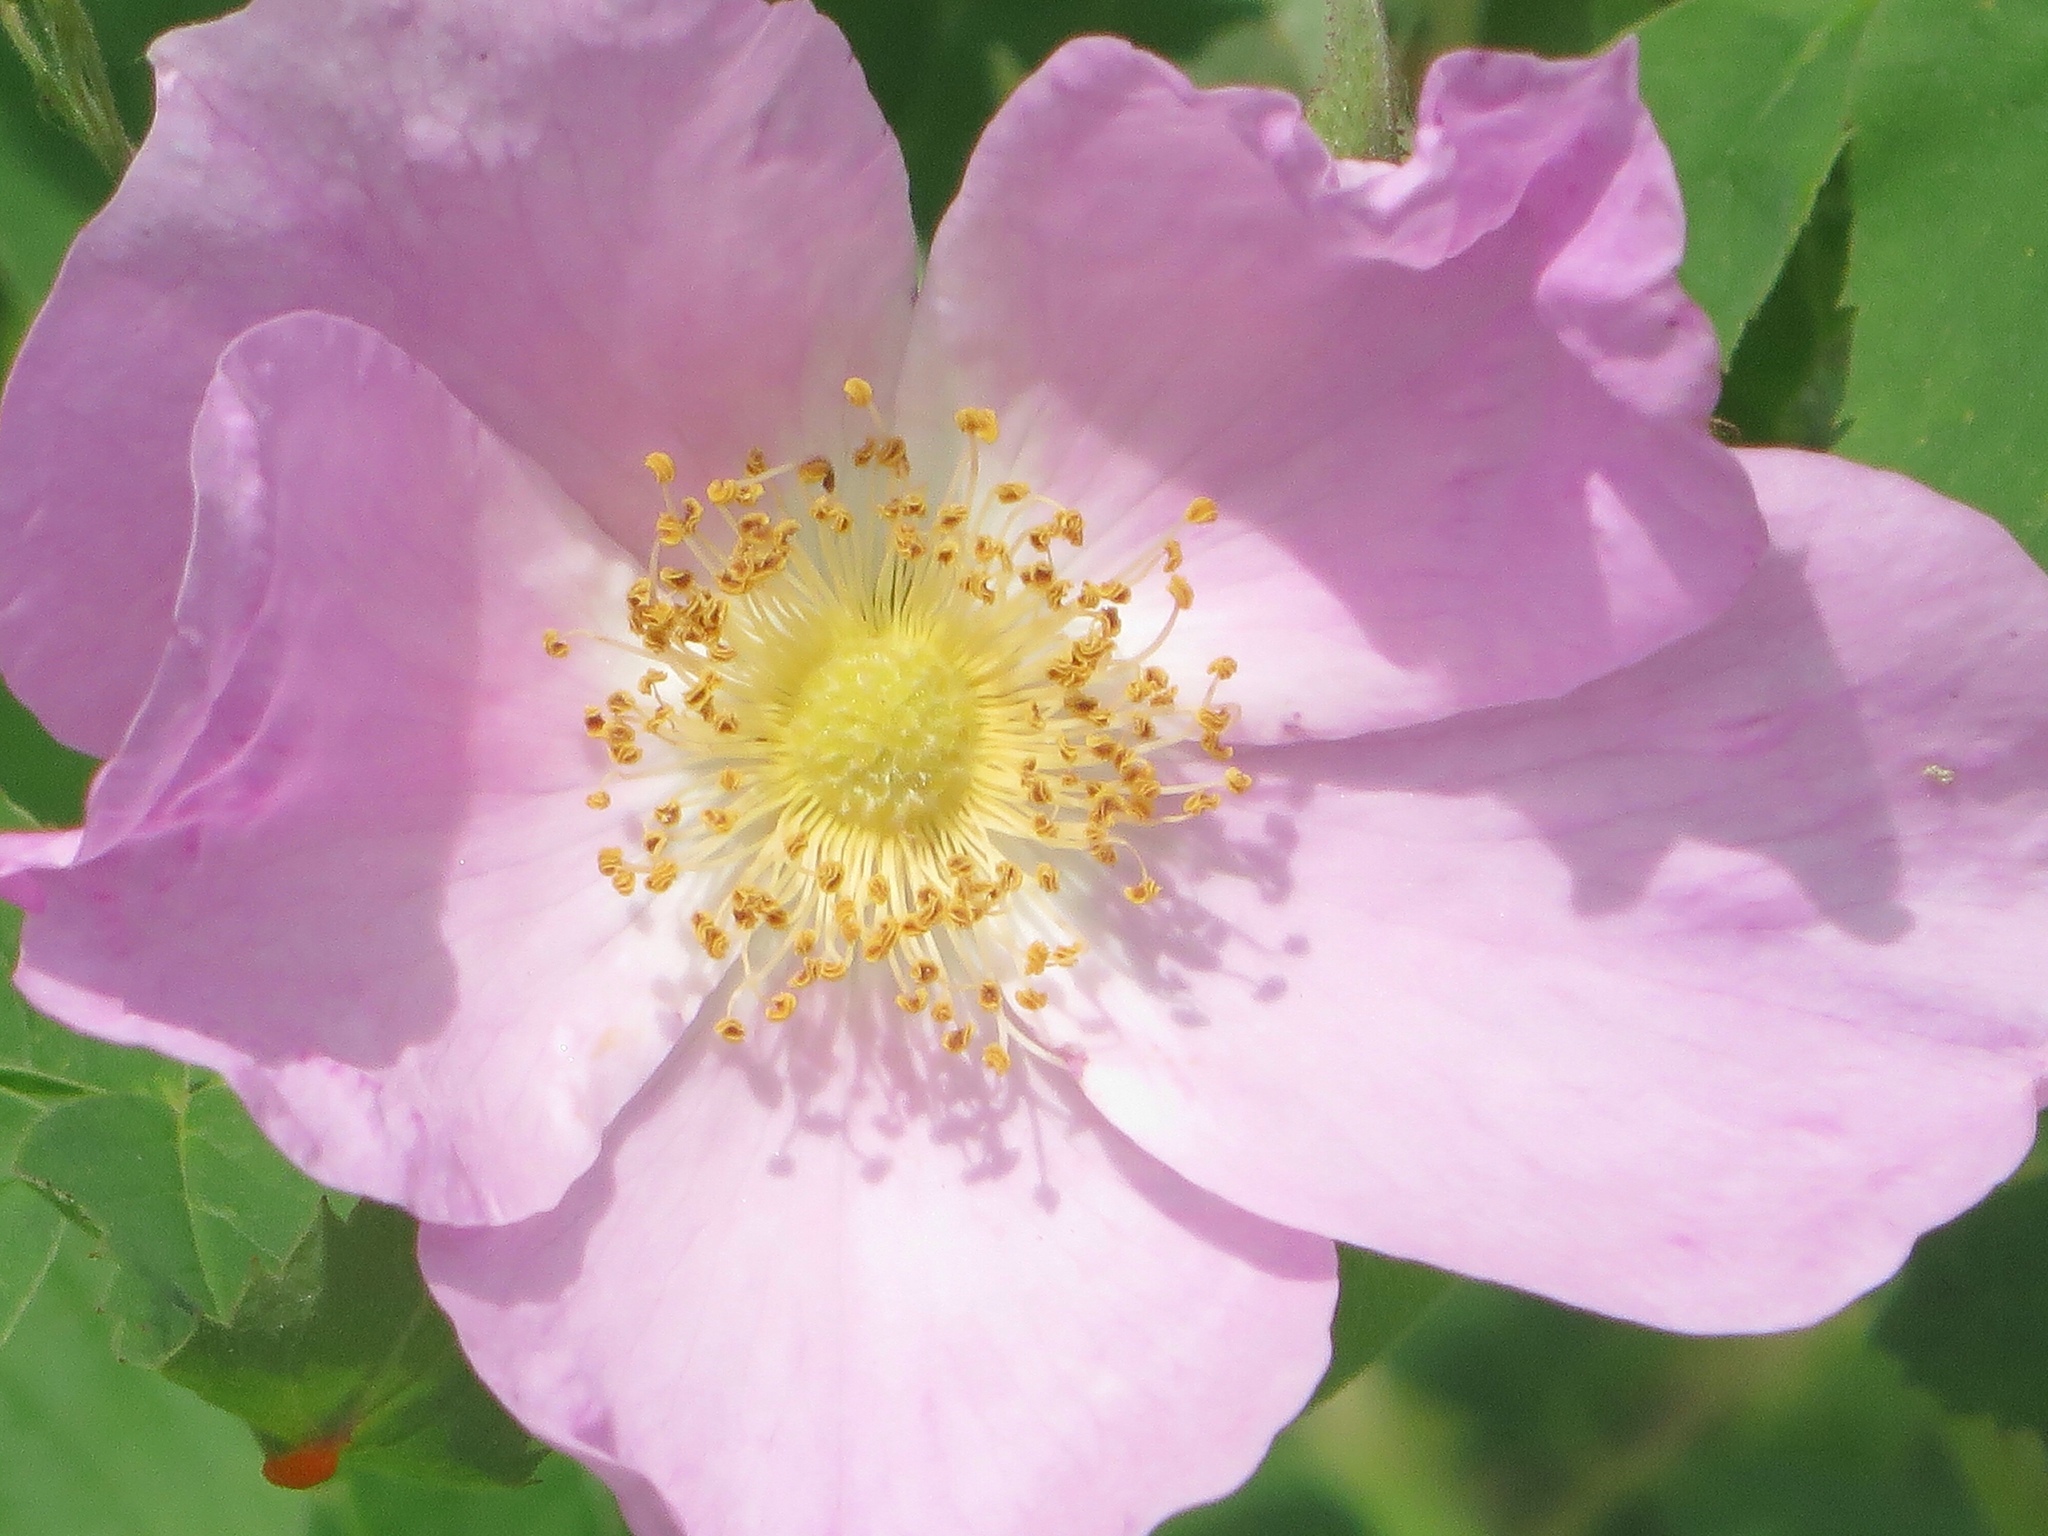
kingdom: Plantae
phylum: Tracheophyta
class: Magnoliopsida
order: Rosales
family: Rosaceae
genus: Rosa
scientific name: Rosa arkansana
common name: Prairie rose
